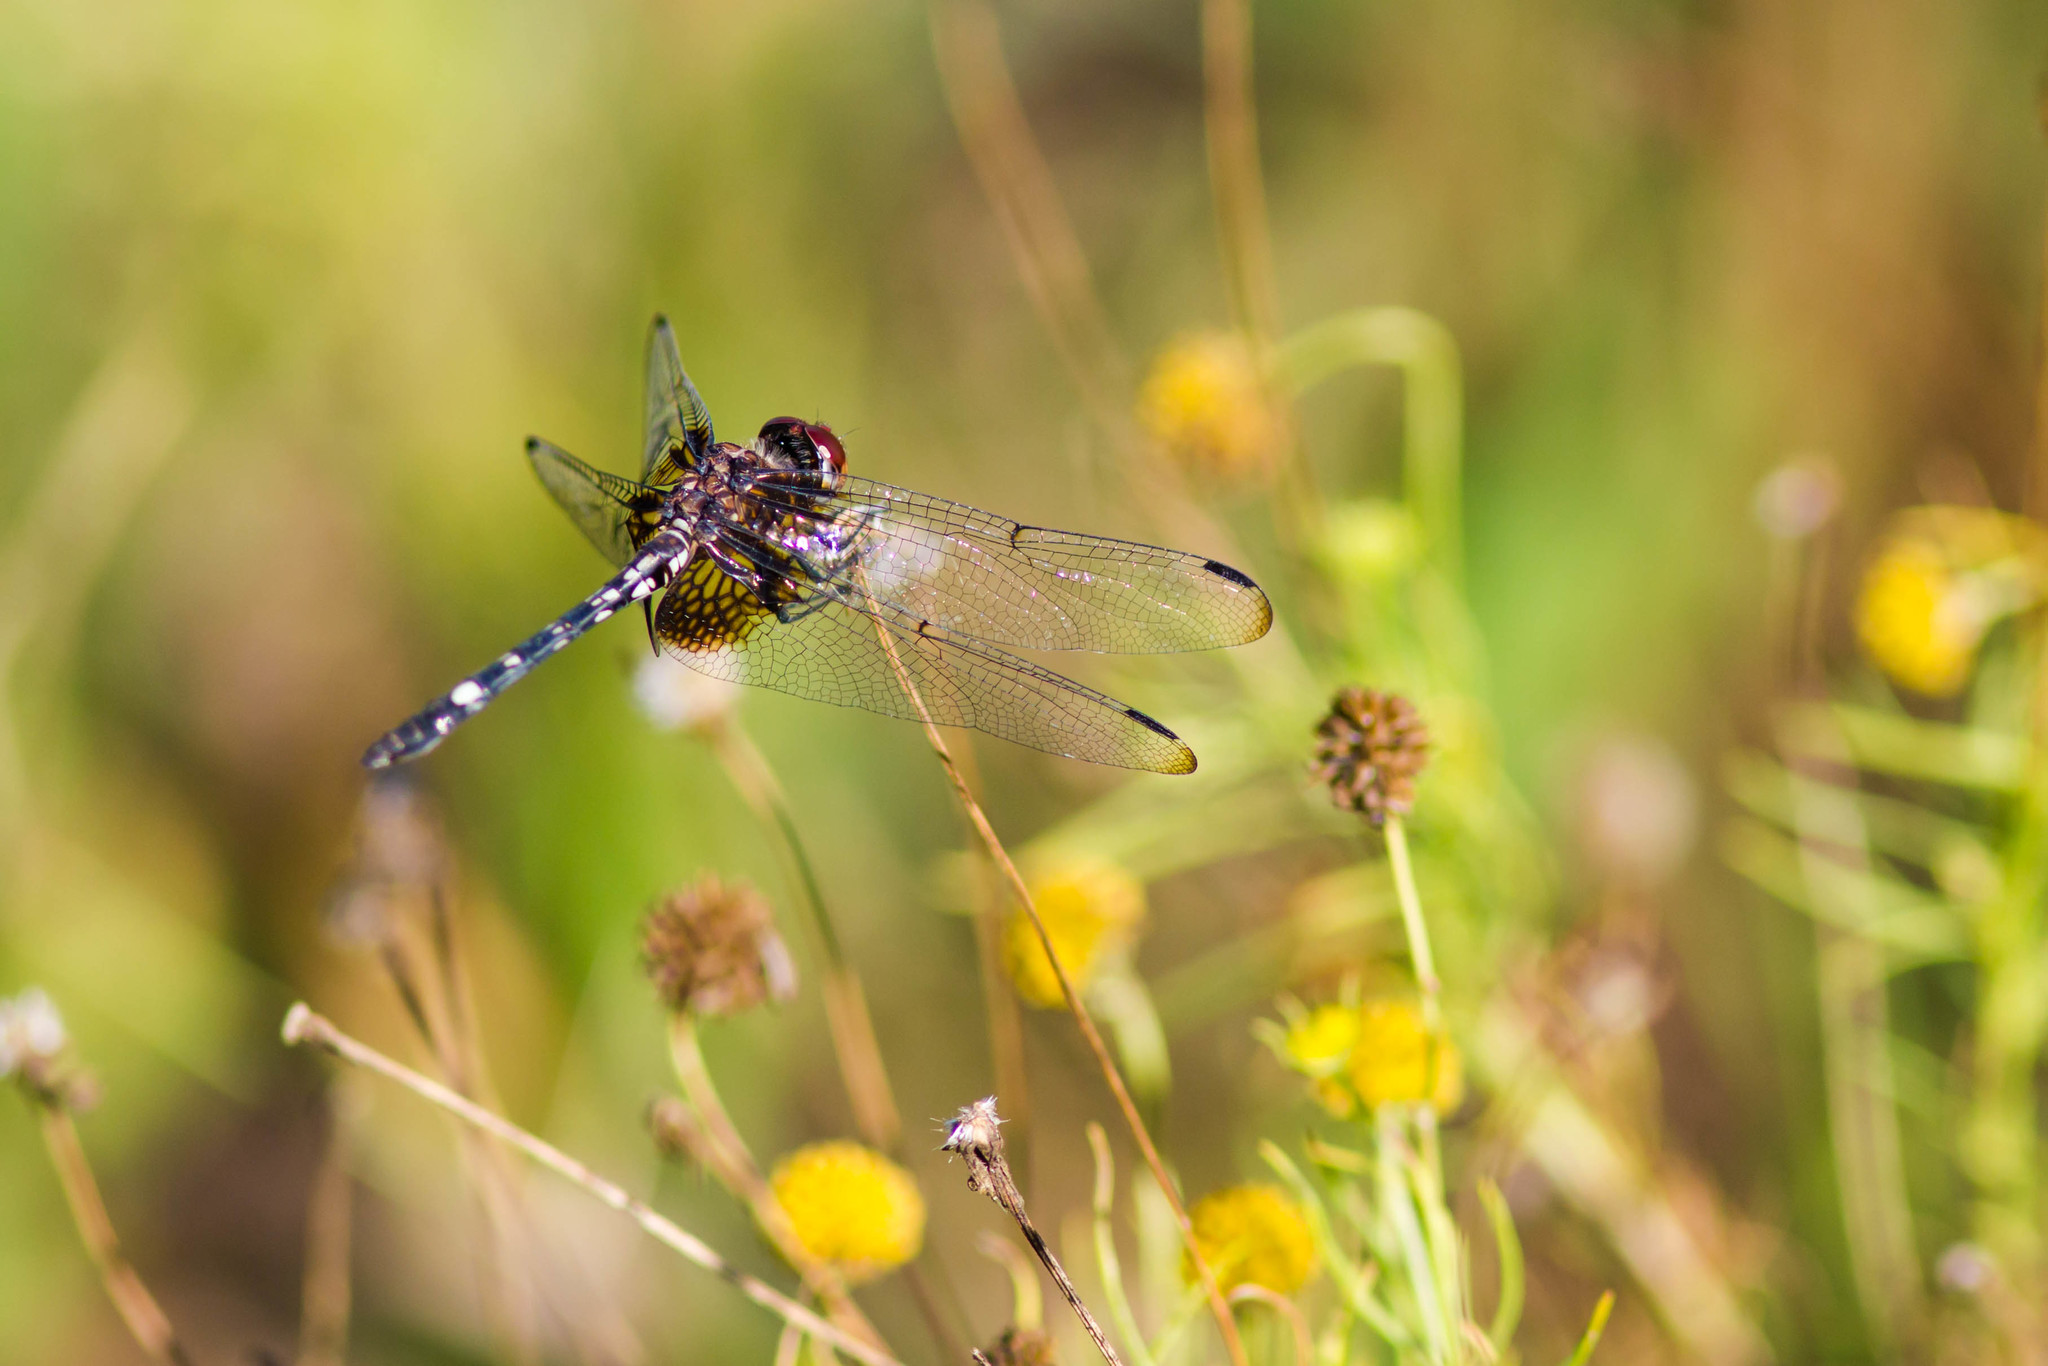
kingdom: Animalia
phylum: Arthropoda
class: Insecta
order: Odonata
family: Libellulidae
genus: Dythemis
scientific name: Dythemis fugax
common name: Checkered setwing
